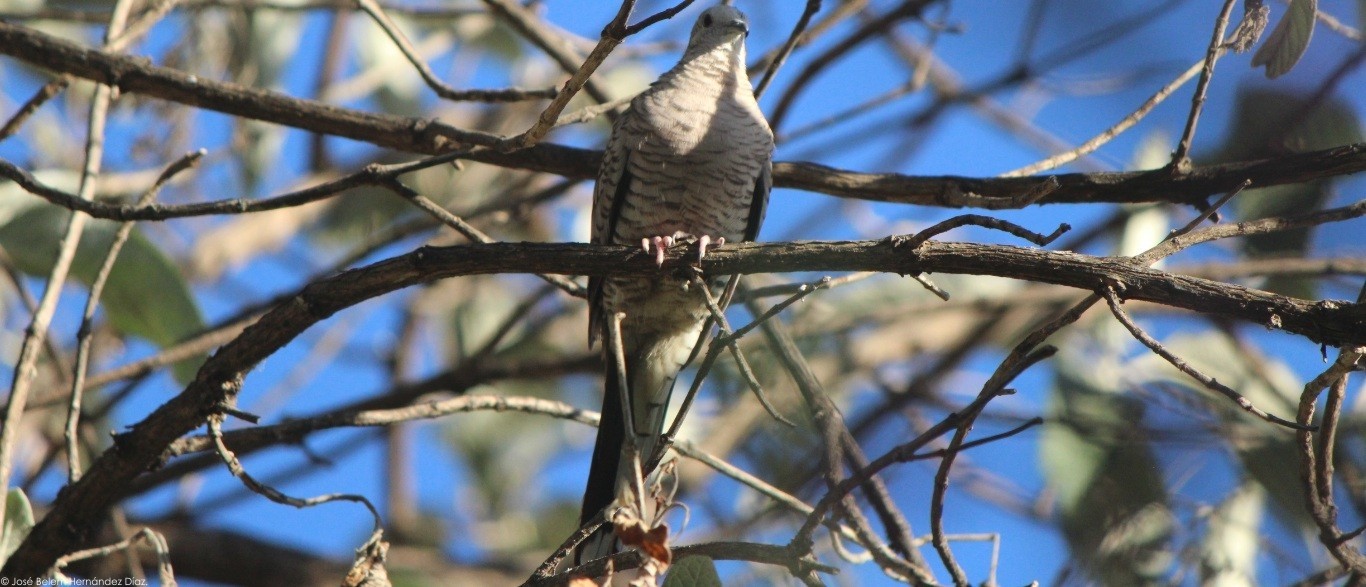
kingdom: Animalia
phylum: Chordata
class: Aves
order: Columbiformes
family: Columbidae
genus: Columbina
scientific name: Columbina inca
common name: Inca dove
